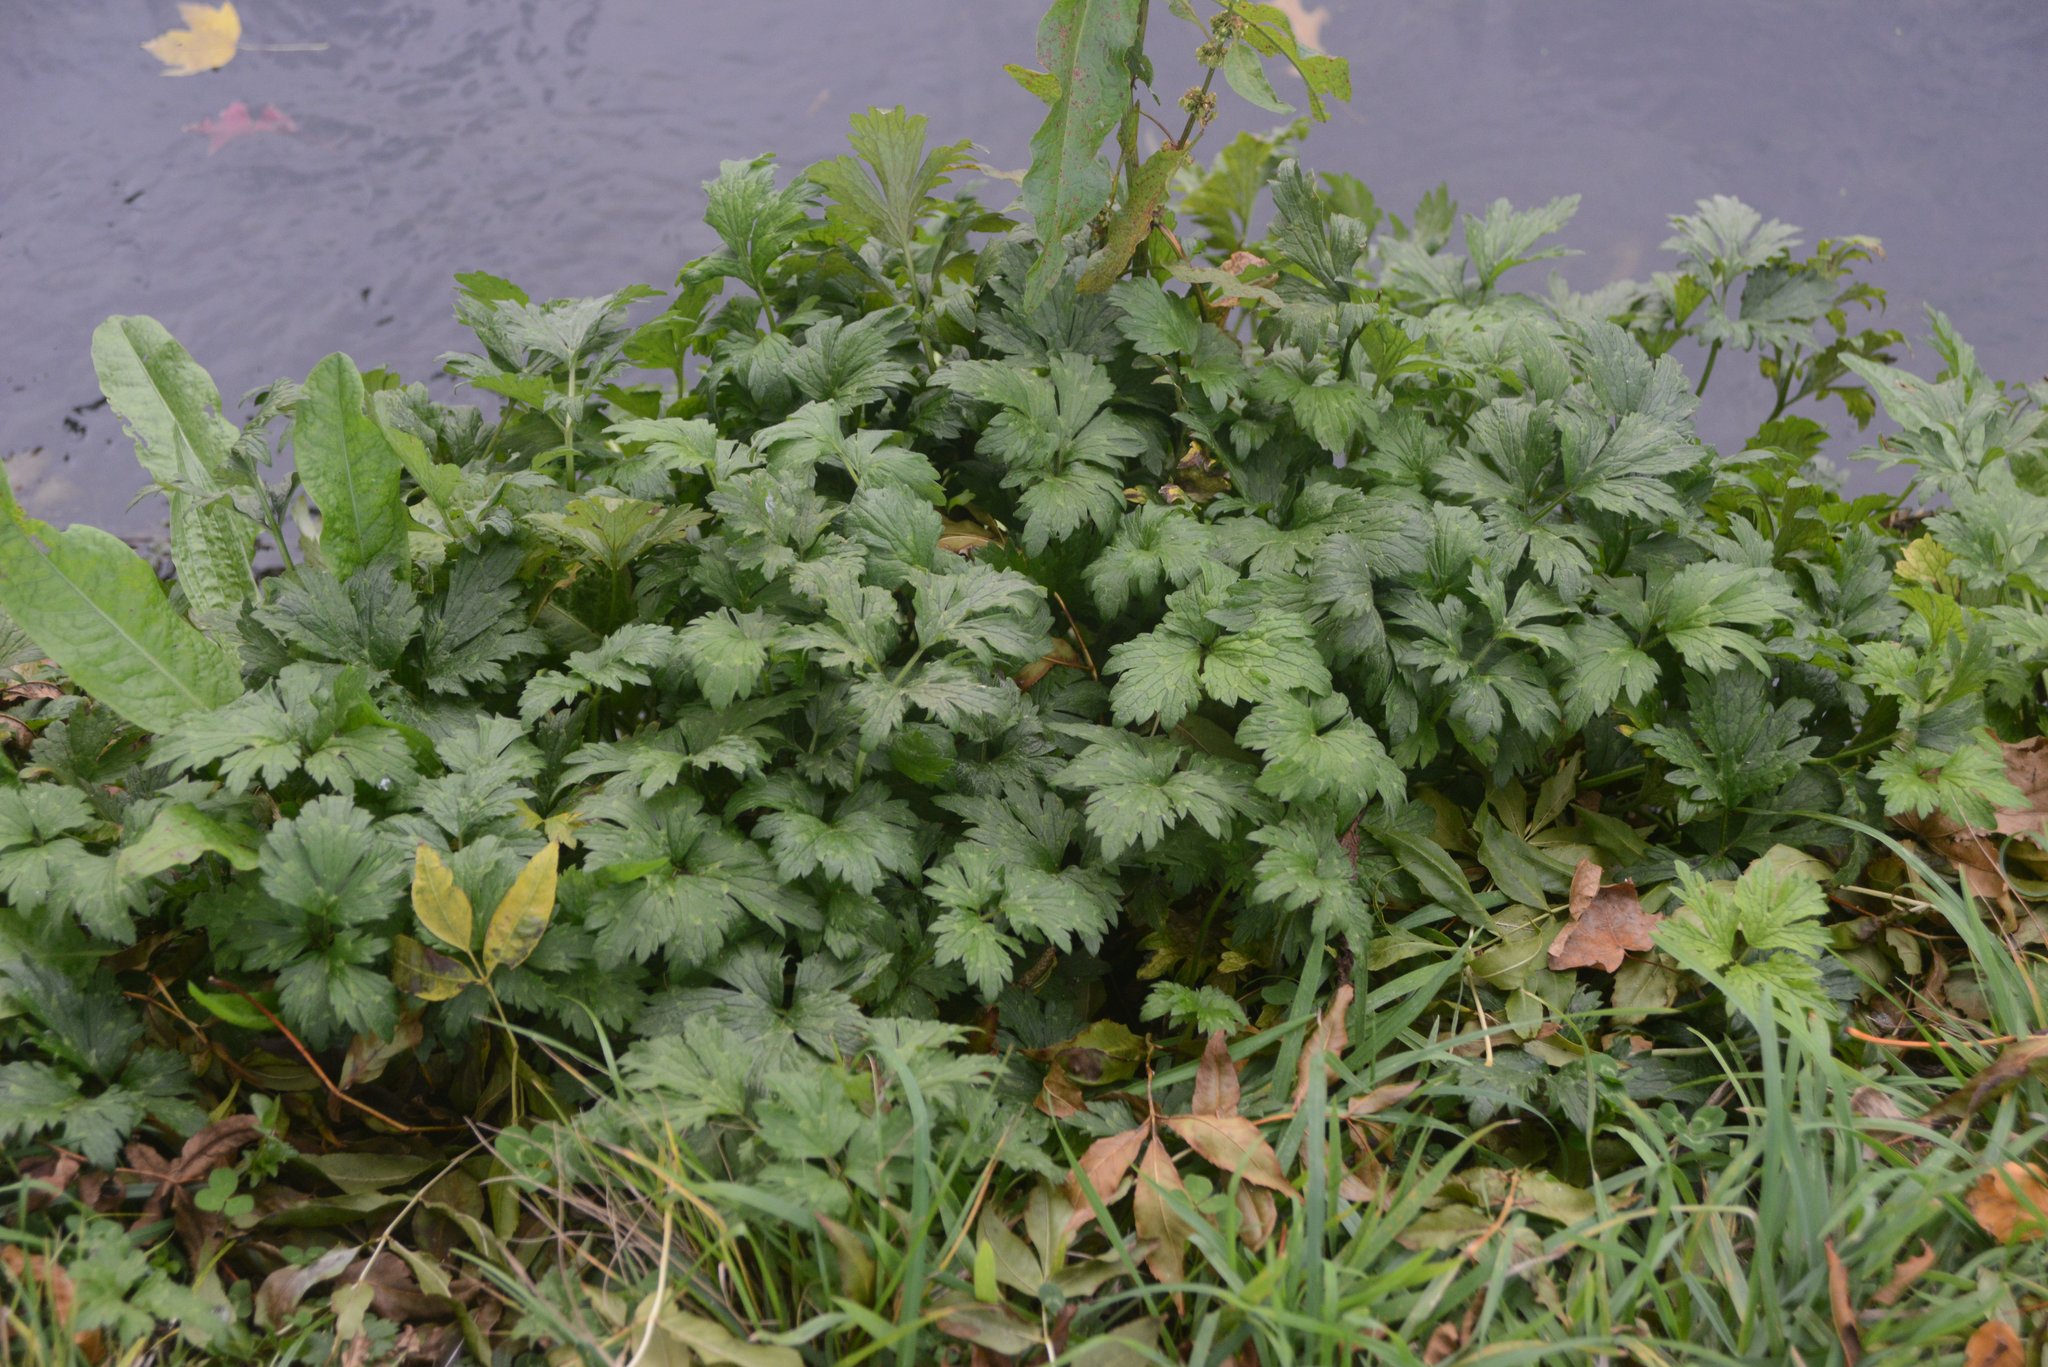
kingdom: Plantae
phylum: Tracheophyta
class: Magnoliopsida
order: Ranunculales
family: Ranunculaceae
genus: Ranunculus
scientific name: Ranunculus repens
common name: Creeping buttercup
